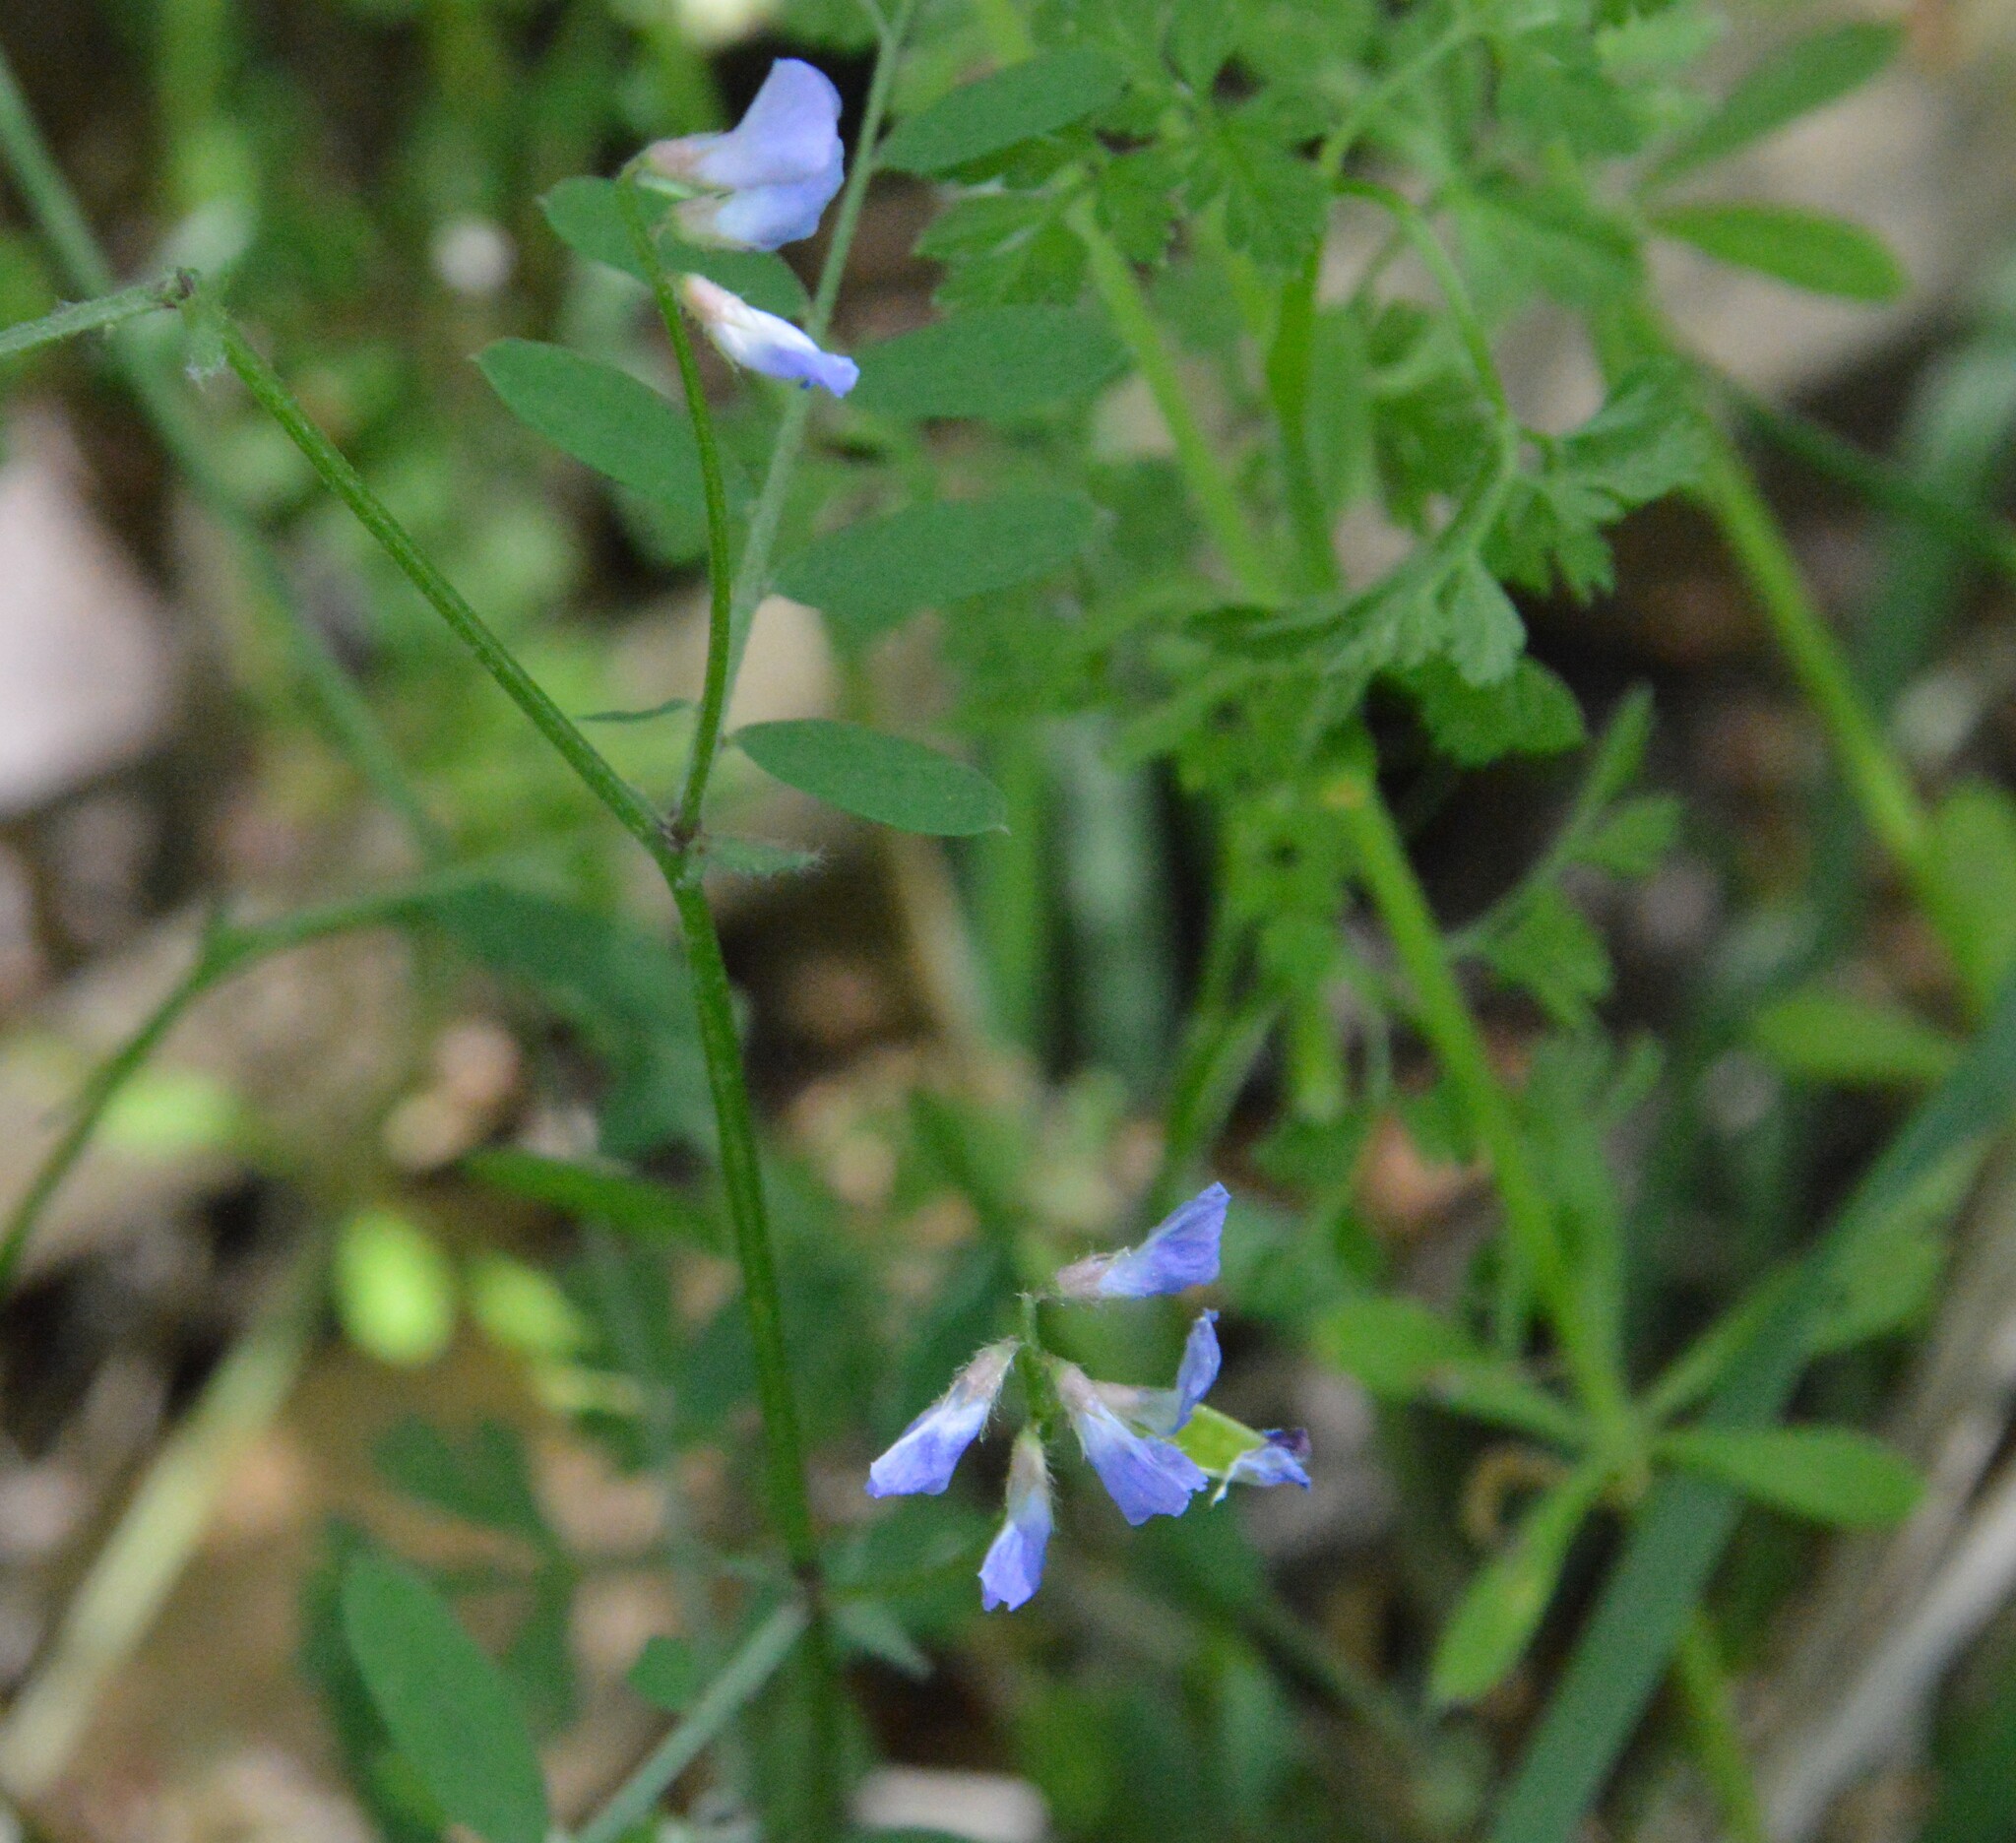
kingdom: Plantae
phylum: Tracheophyta
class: Magnoliopsida
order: Fabales
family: Fabaceae
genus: Vicia
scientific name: Vicia ludoviciana
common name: Louisiana vetch
